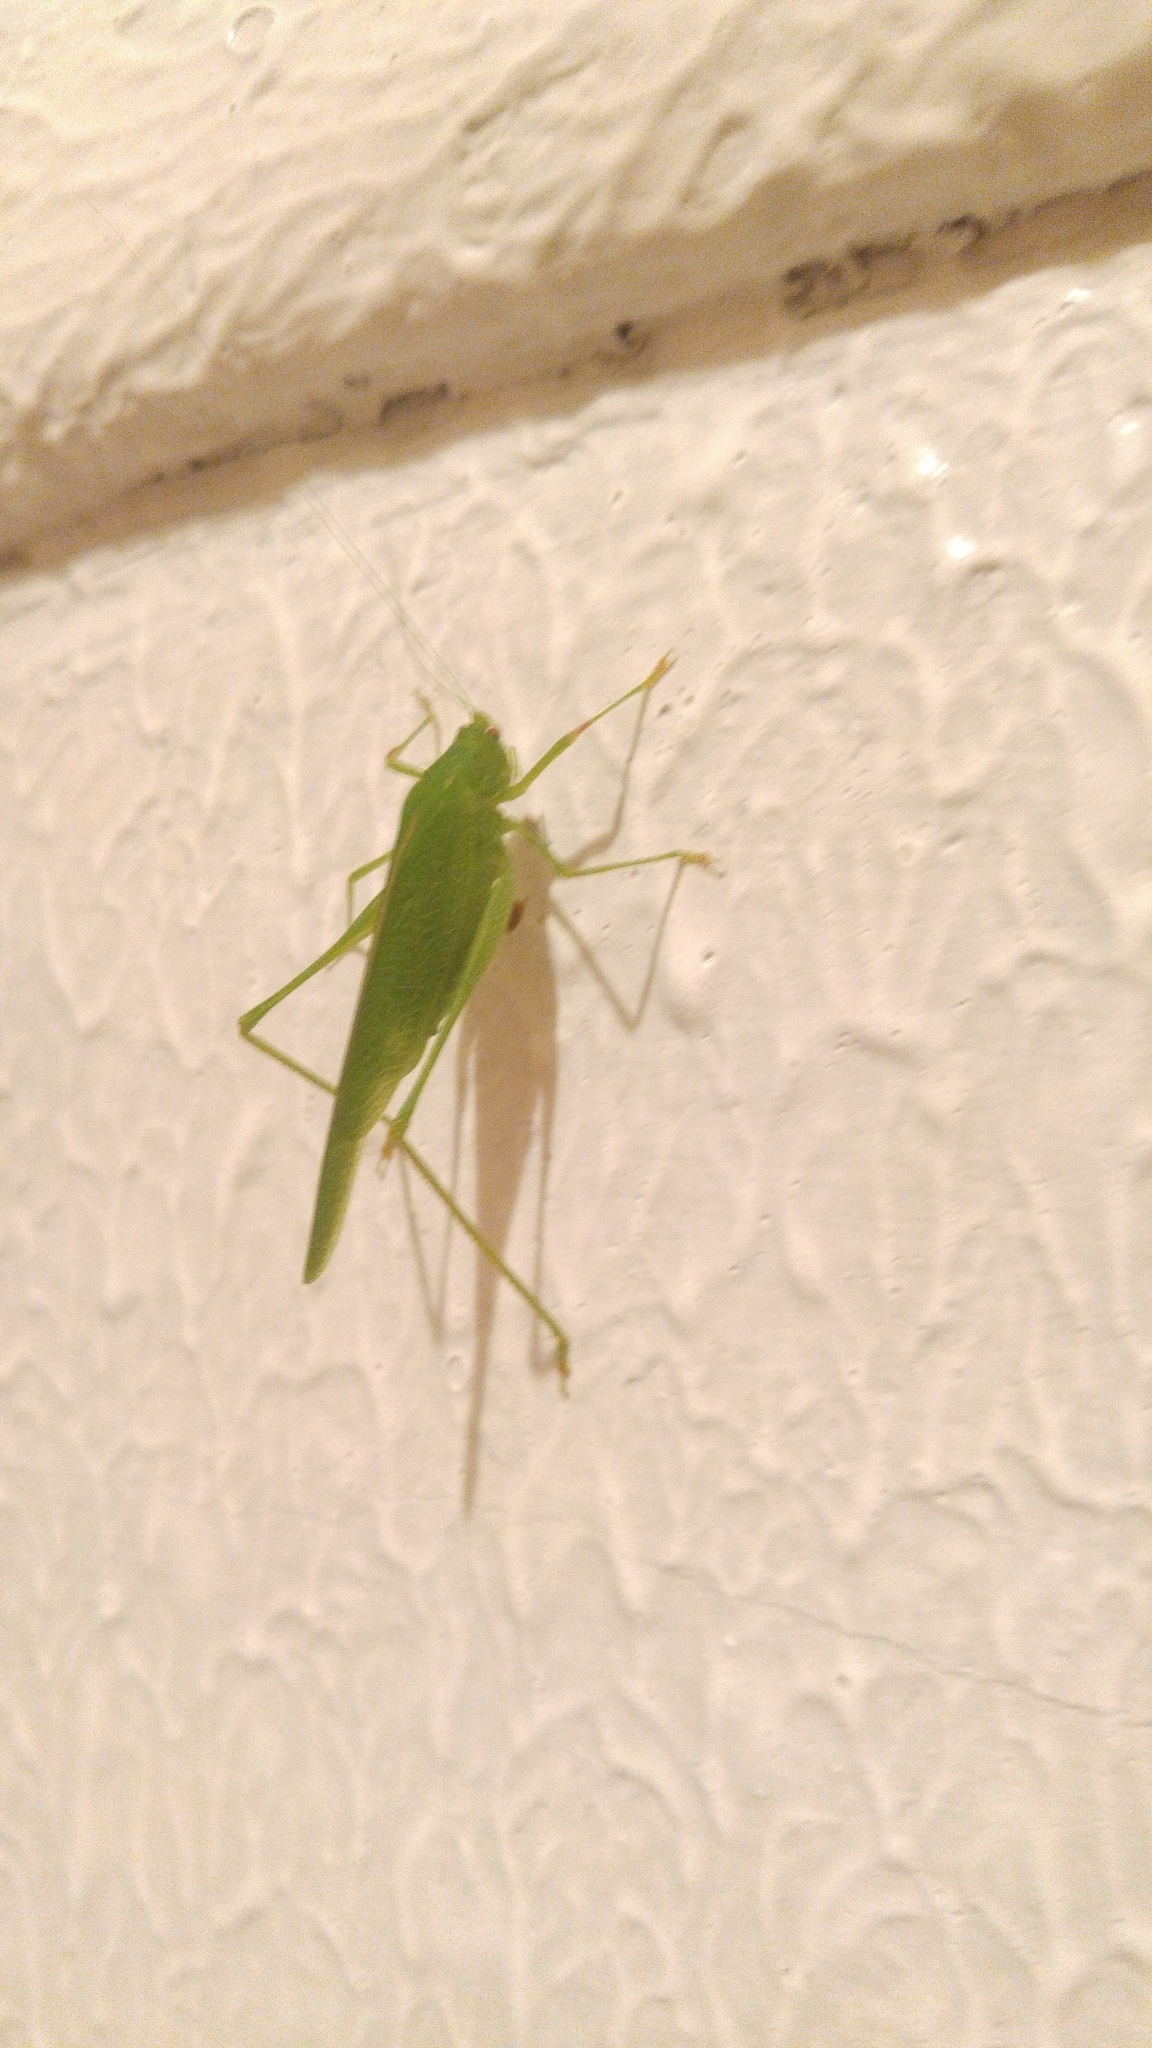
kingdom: Animalia
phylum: Arthropoda
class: Insecta
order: Orthoptera
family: Tettigoniidae
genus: Phaneroptera
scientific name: Phaneroptera nana
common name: Southern sickle bush-cricket
